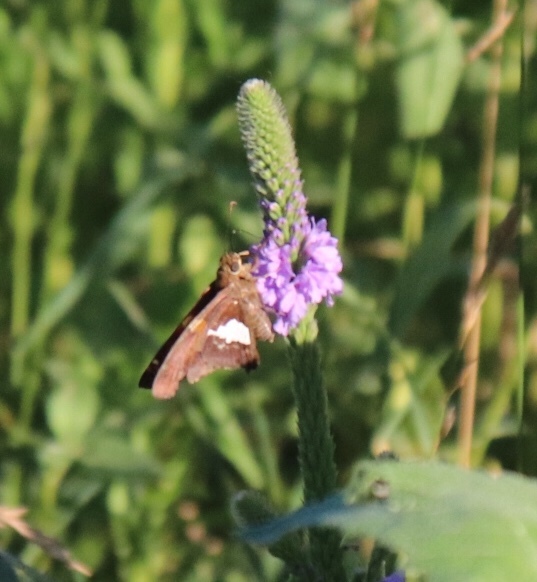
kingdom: Animalia
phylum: Arthropoda
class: Insecta
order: Lepidoptera
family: Hesperiidae
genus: Epargyreus
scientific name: Epargyreus clarus
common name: Silver-spotted skipper
